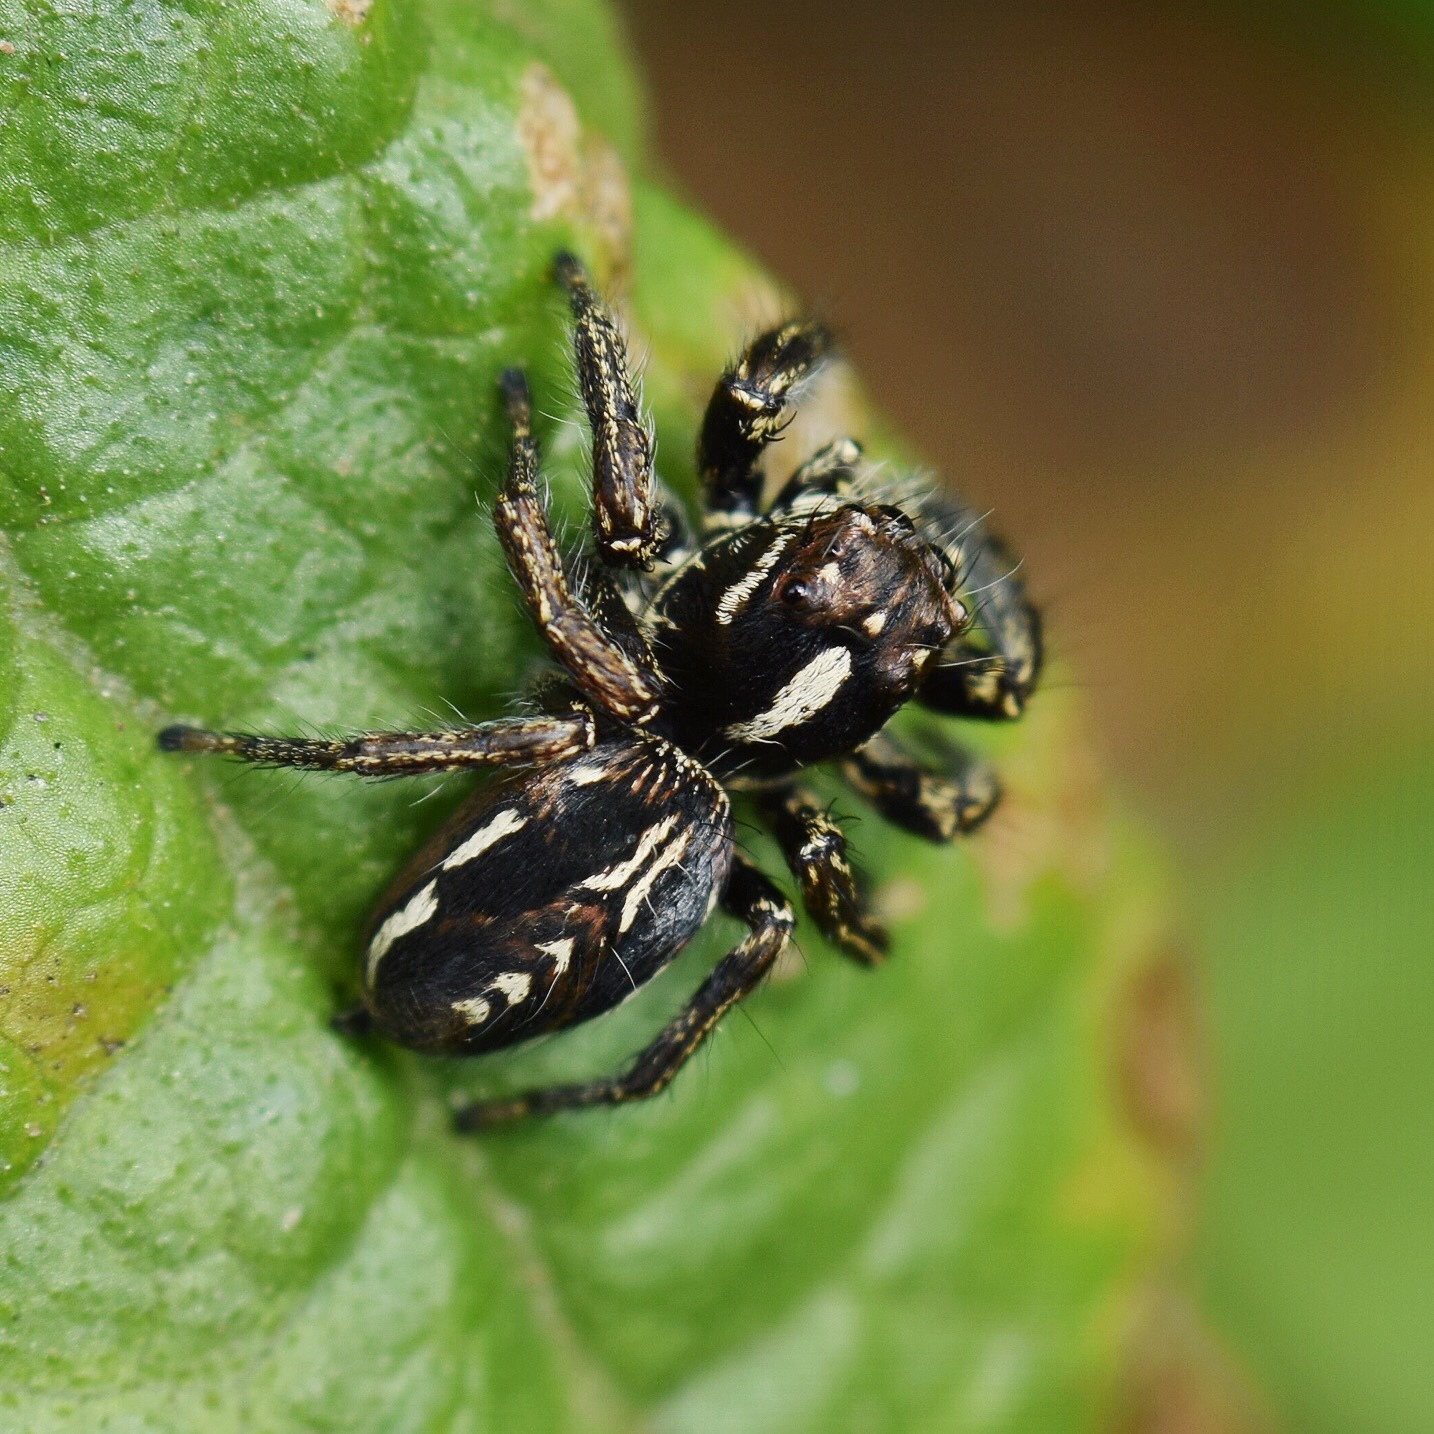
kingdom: Animalia
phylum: Arthropoda
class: Arachnida
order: Araneae
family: Salticidae
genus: Hyllus
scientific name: Hyllus argyrotoxus
